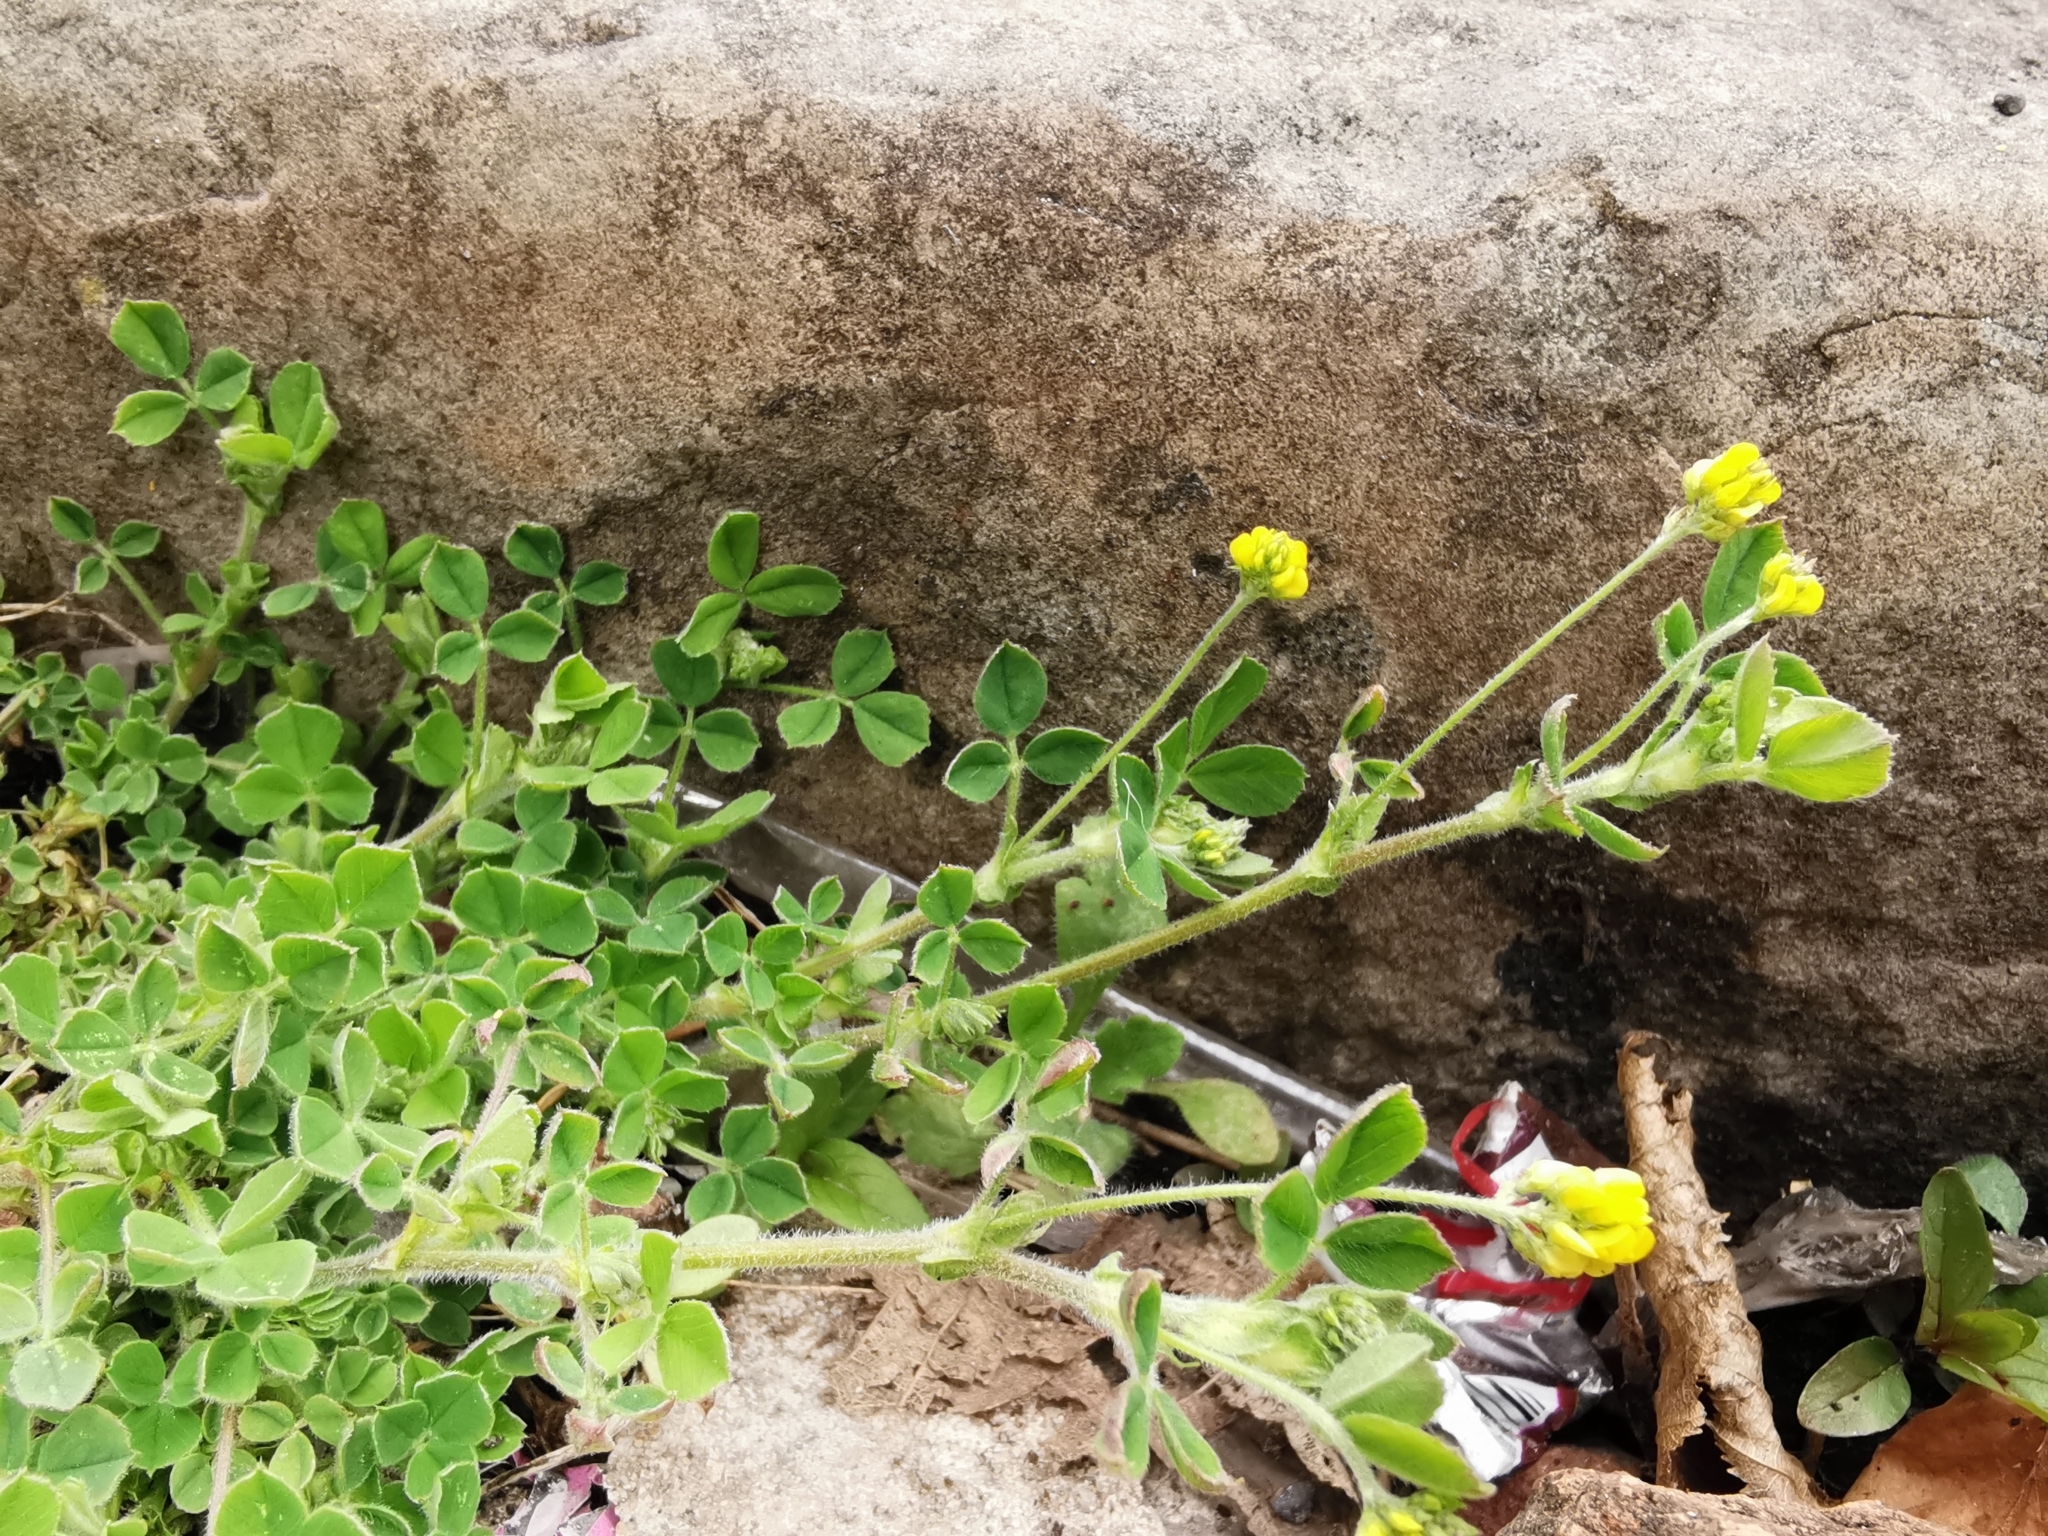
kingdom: Plantae
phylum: Tracheophyta
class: Magnoliopsida
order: Fabales
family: Fabaceae
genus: Medicago
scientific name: Medicago lupulina
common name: Black medick
